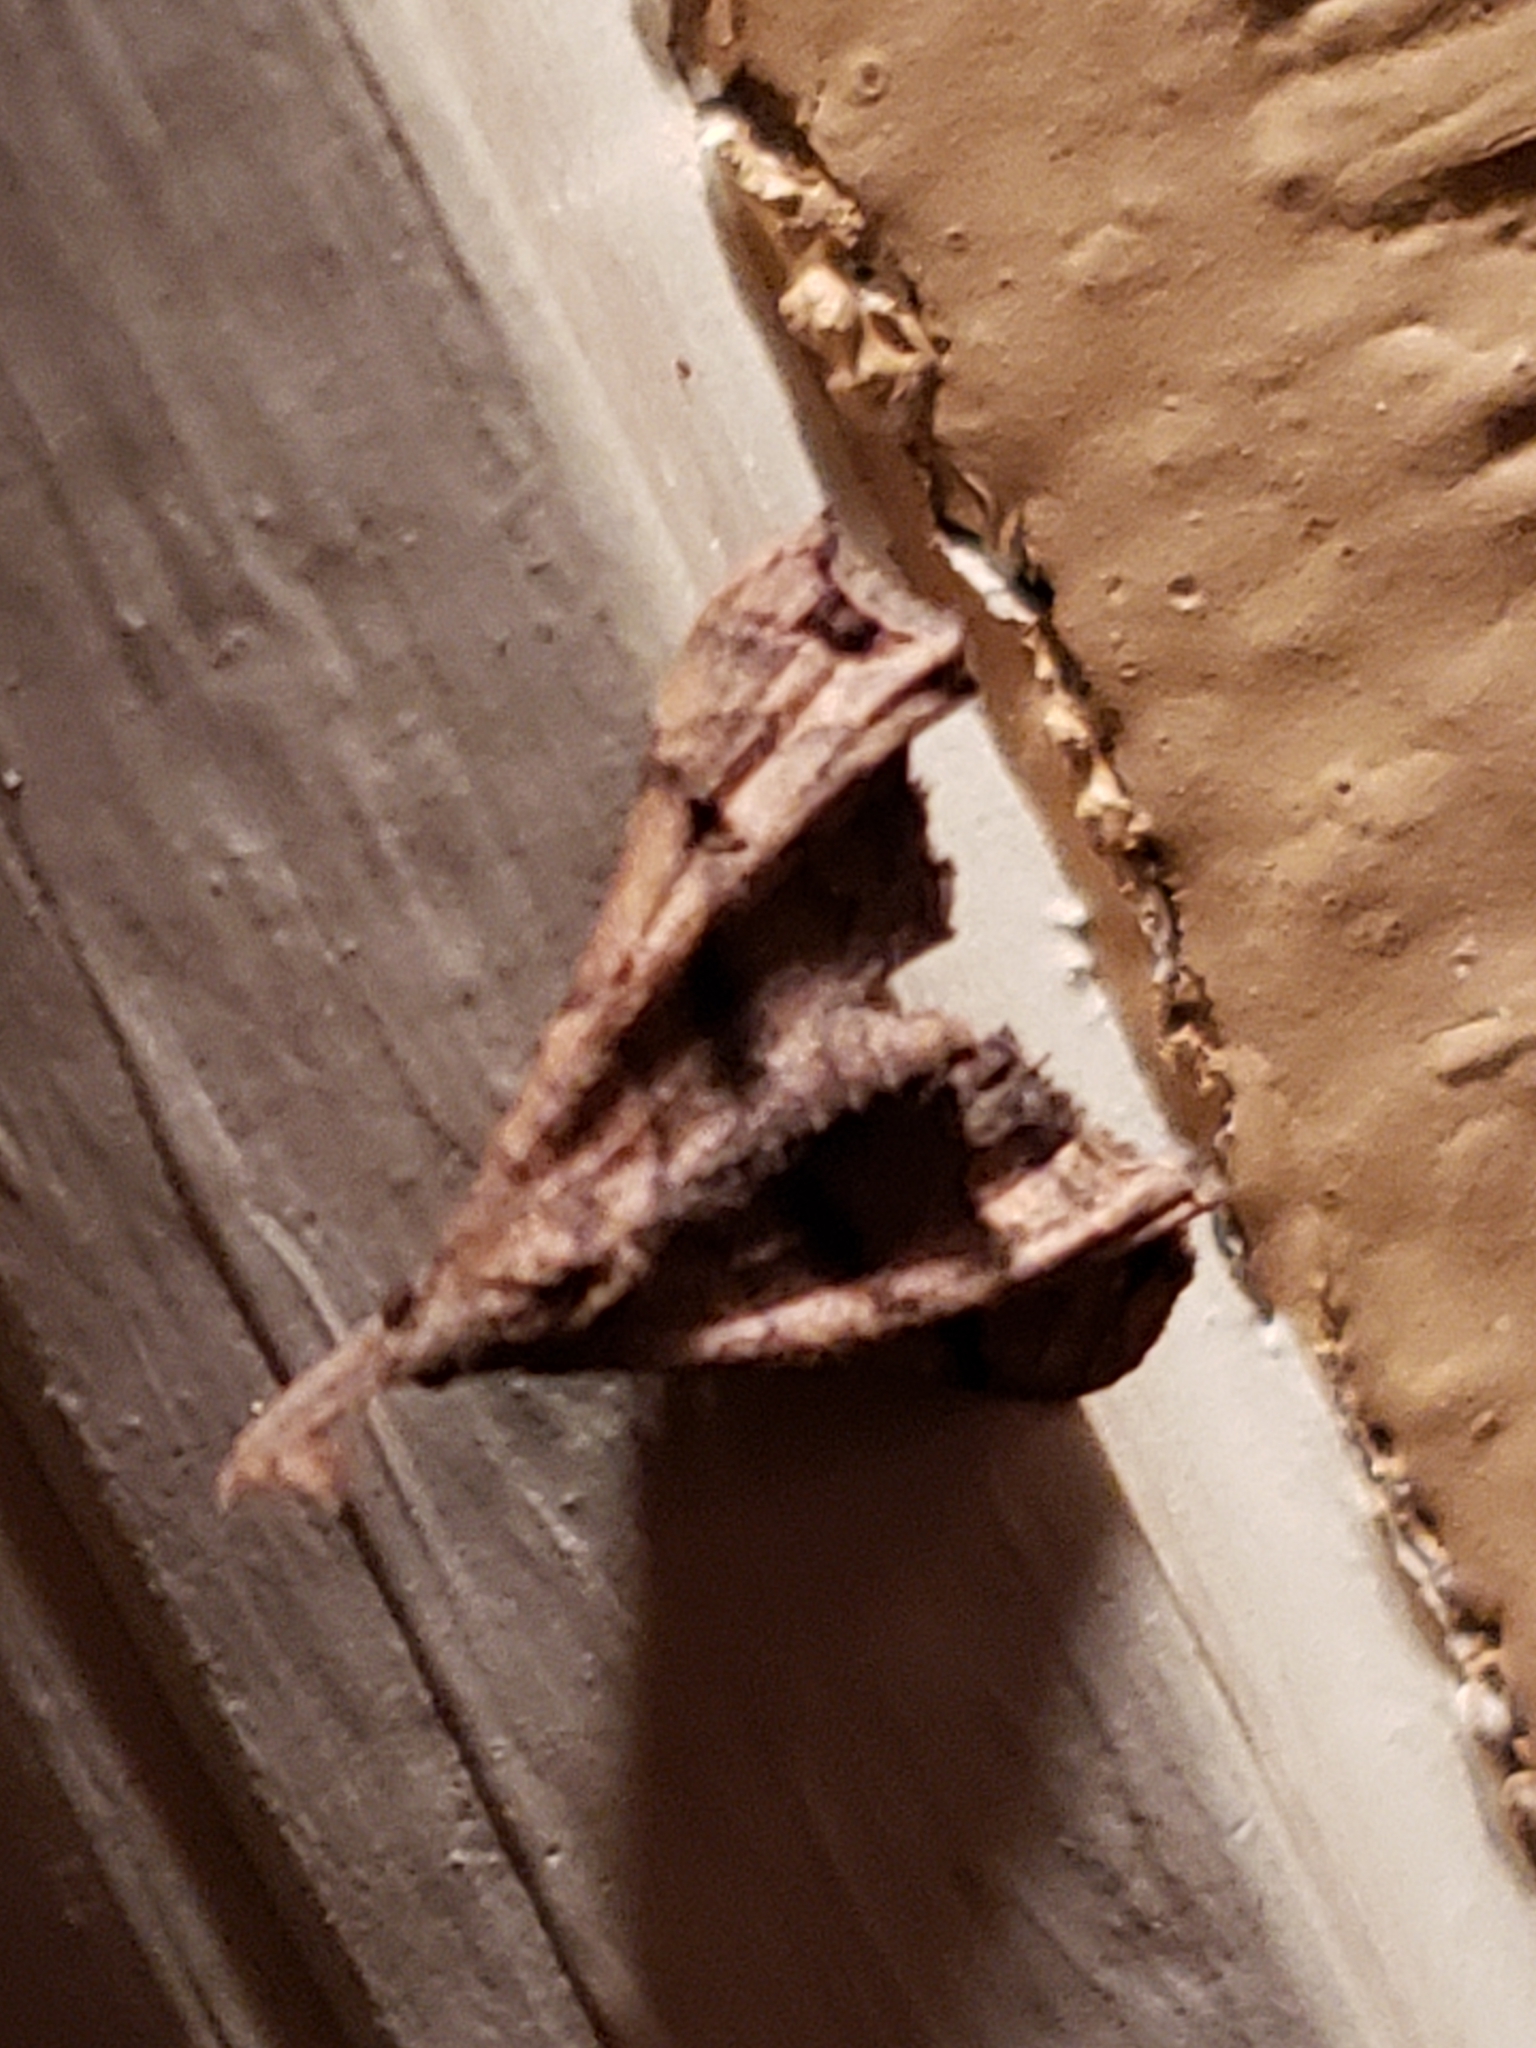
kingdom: Animalia
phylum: Arthropoda
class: Insecta
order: Lepidoptera
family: Erebidae
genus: Palthis
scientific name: Palthis angulalis
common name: Dark-spotted palthis moth
